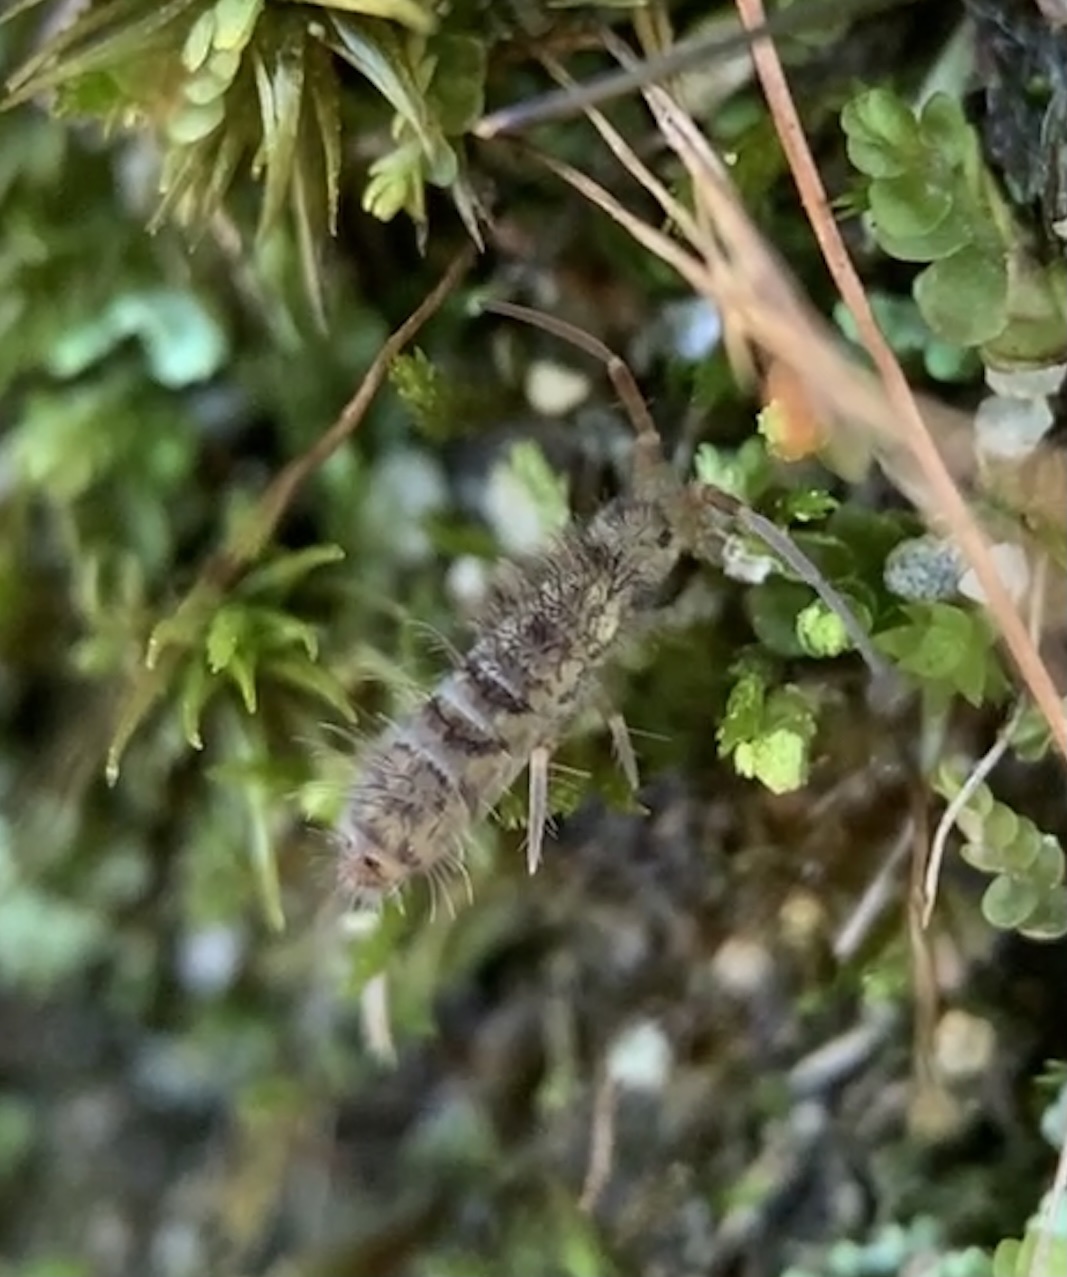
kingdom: Animalia
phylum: Arthropoda
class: Collembola
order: Entomobryomorpha
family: Orchesellidae
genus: Orchesella
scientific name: Orchesella villosa
